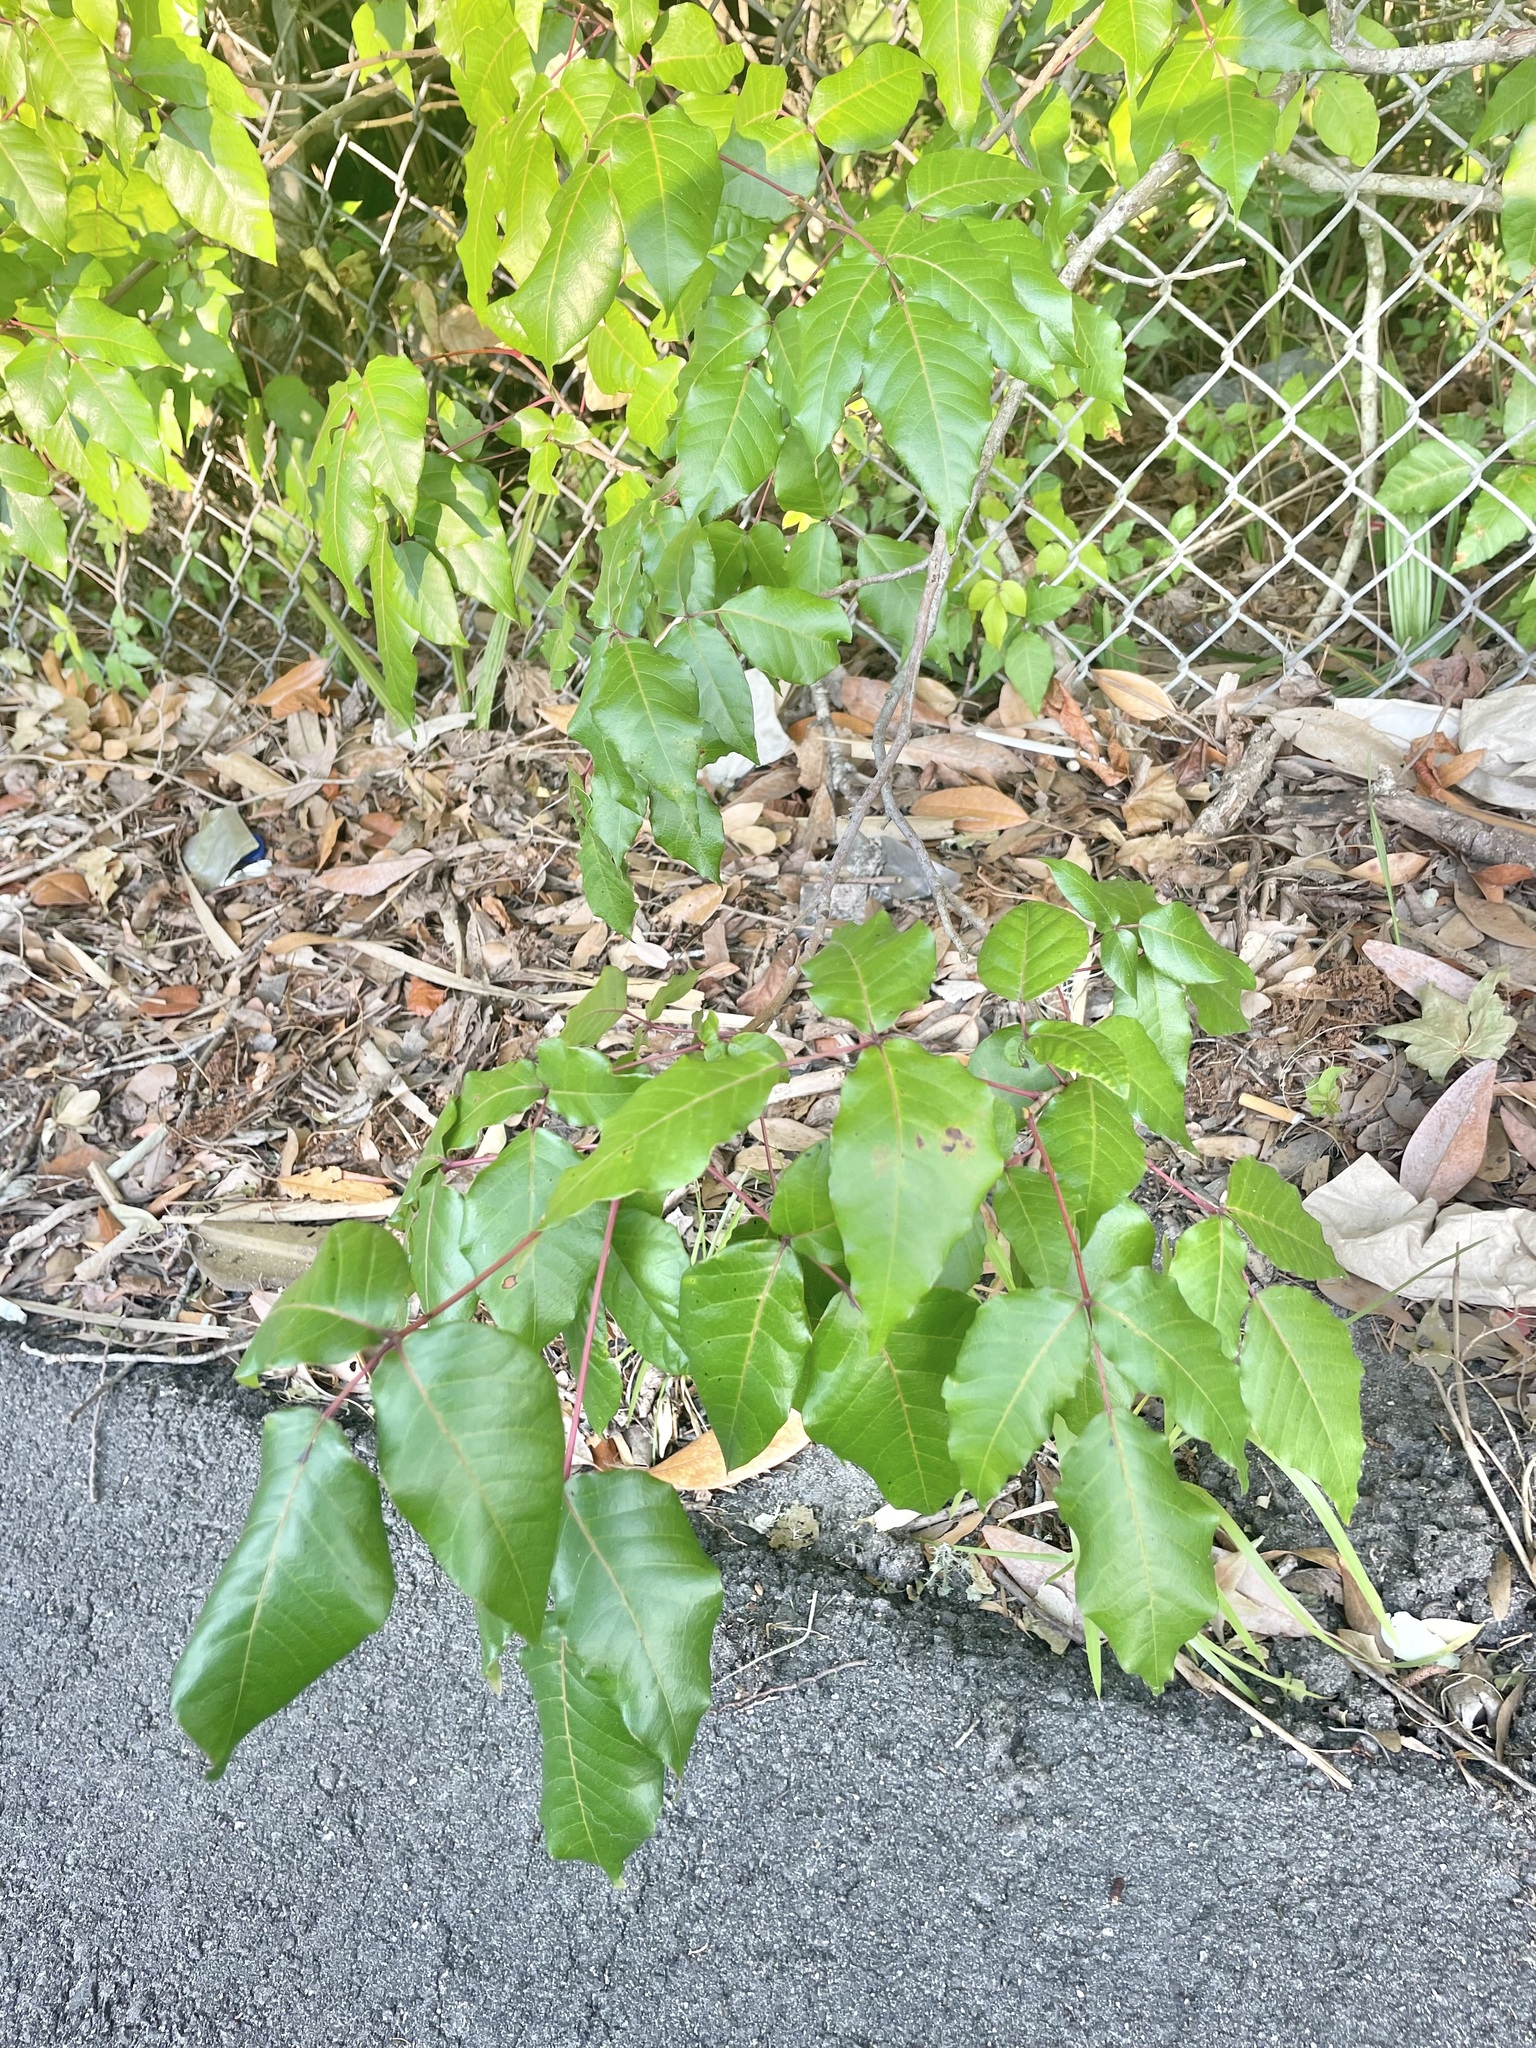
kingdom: Plantae
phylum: Tracheophyta
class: Magnoliopsida
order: Sapindales
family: Anacardiaceae
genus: Toxicodendron
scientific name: Toxicodendron radicans
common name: Poison ivy
